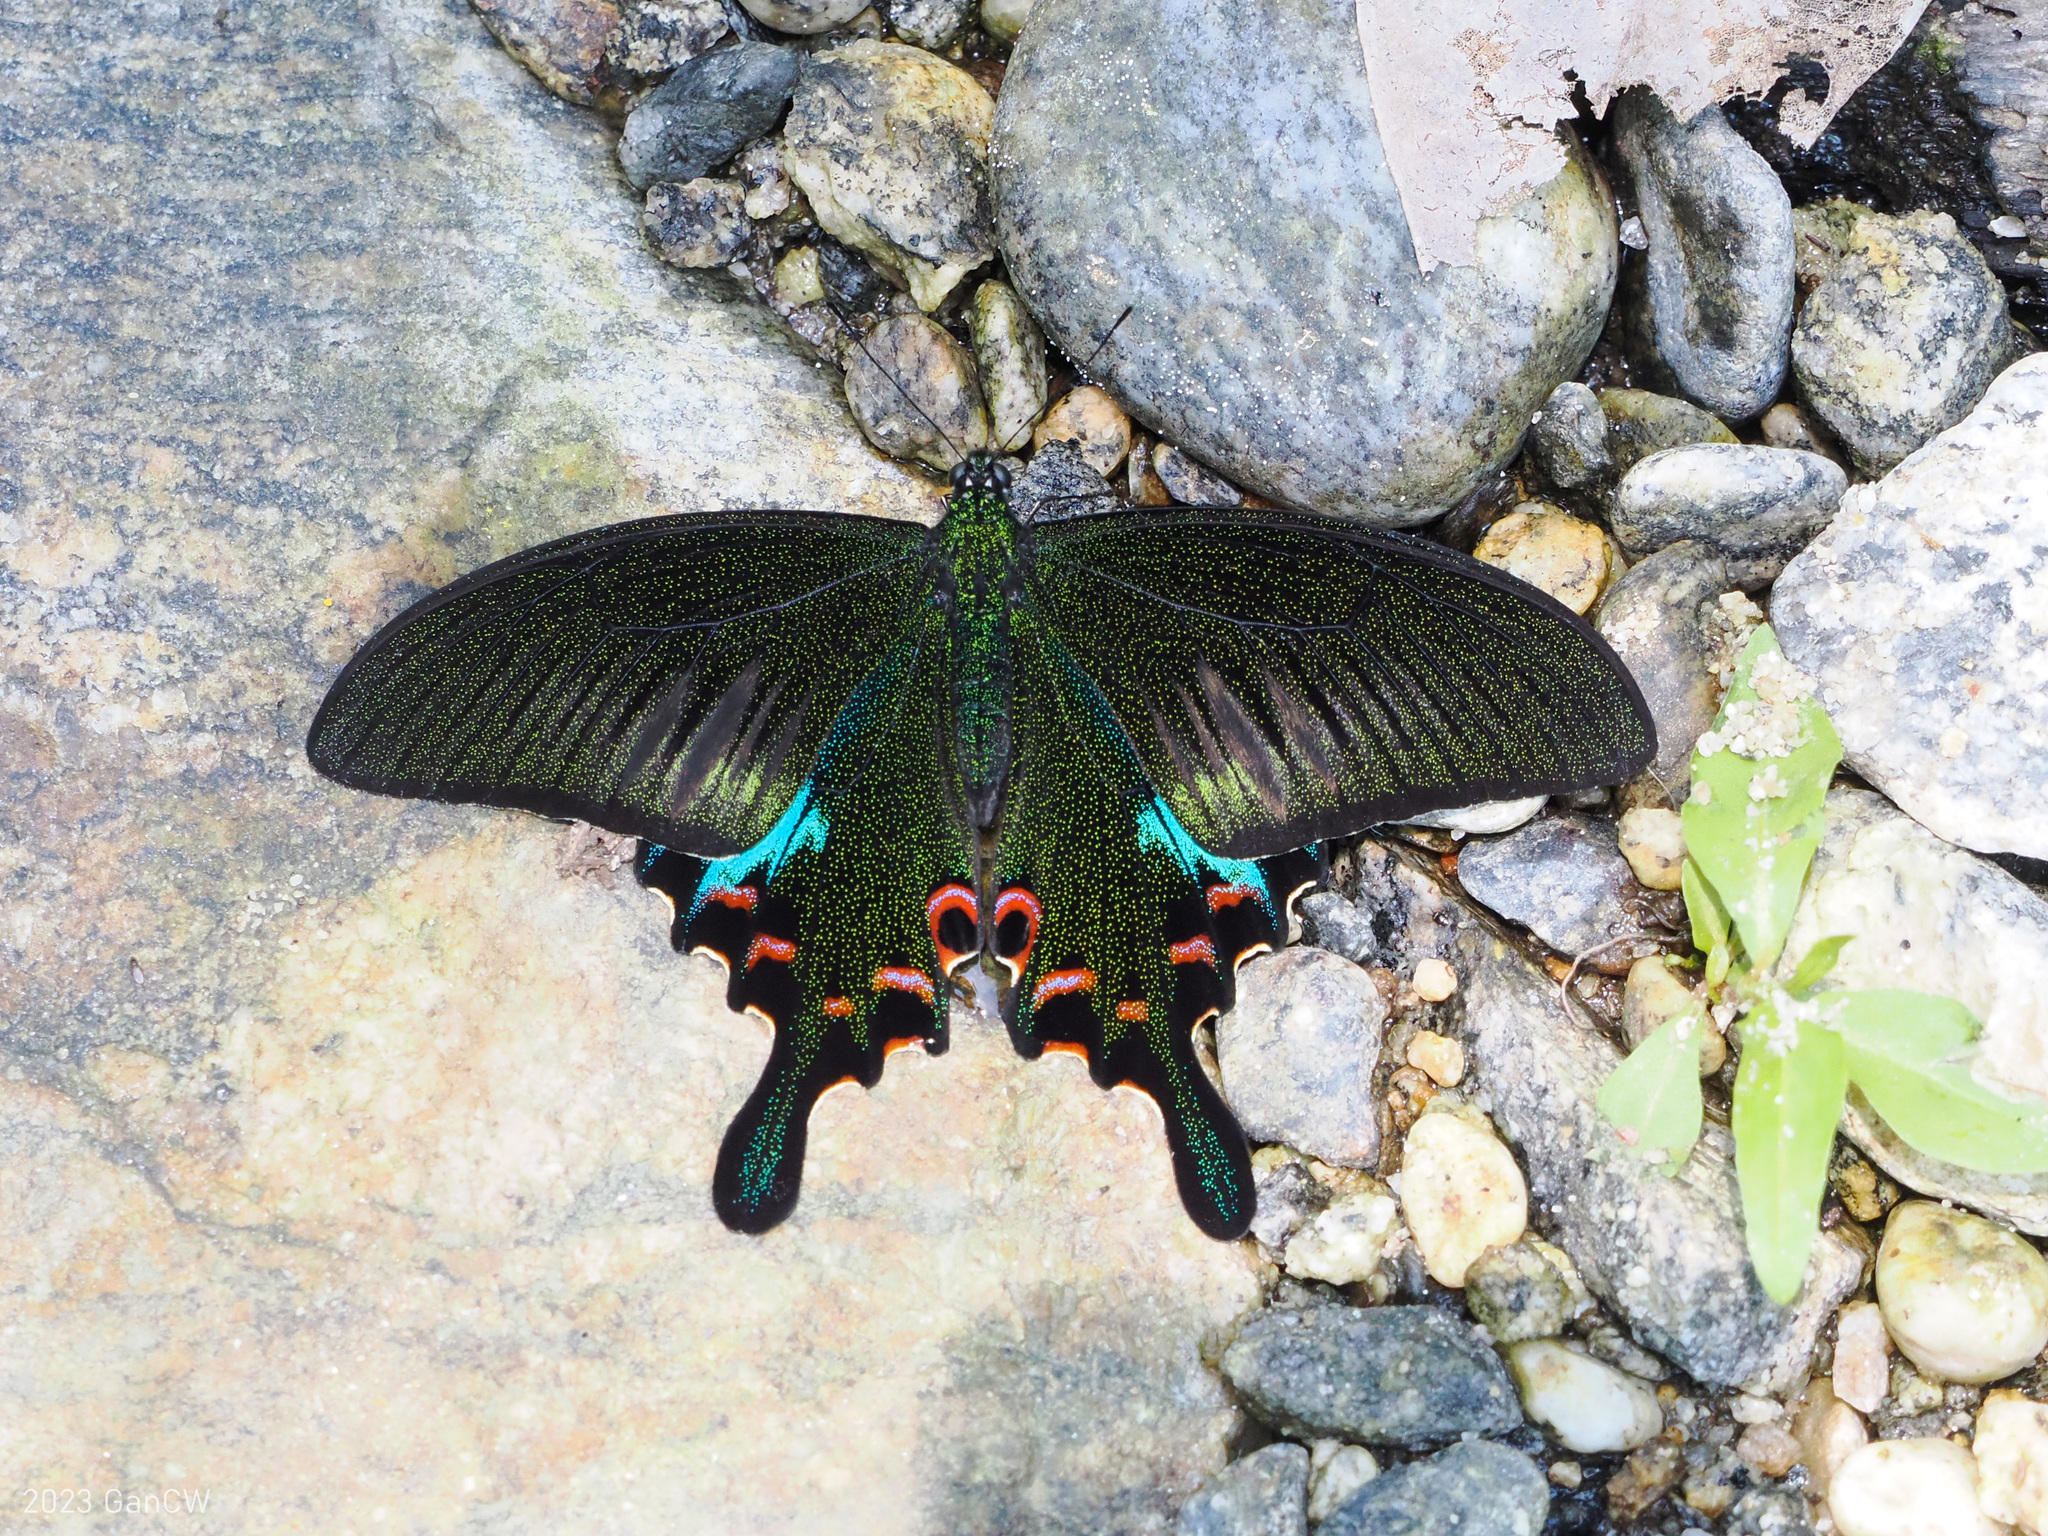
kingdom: Animalia
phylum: Arthropoda
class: Insecta
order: Lepidoptera
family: Papilionidae
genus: Papilio
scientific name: Papilio bianor
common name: Common peacock
